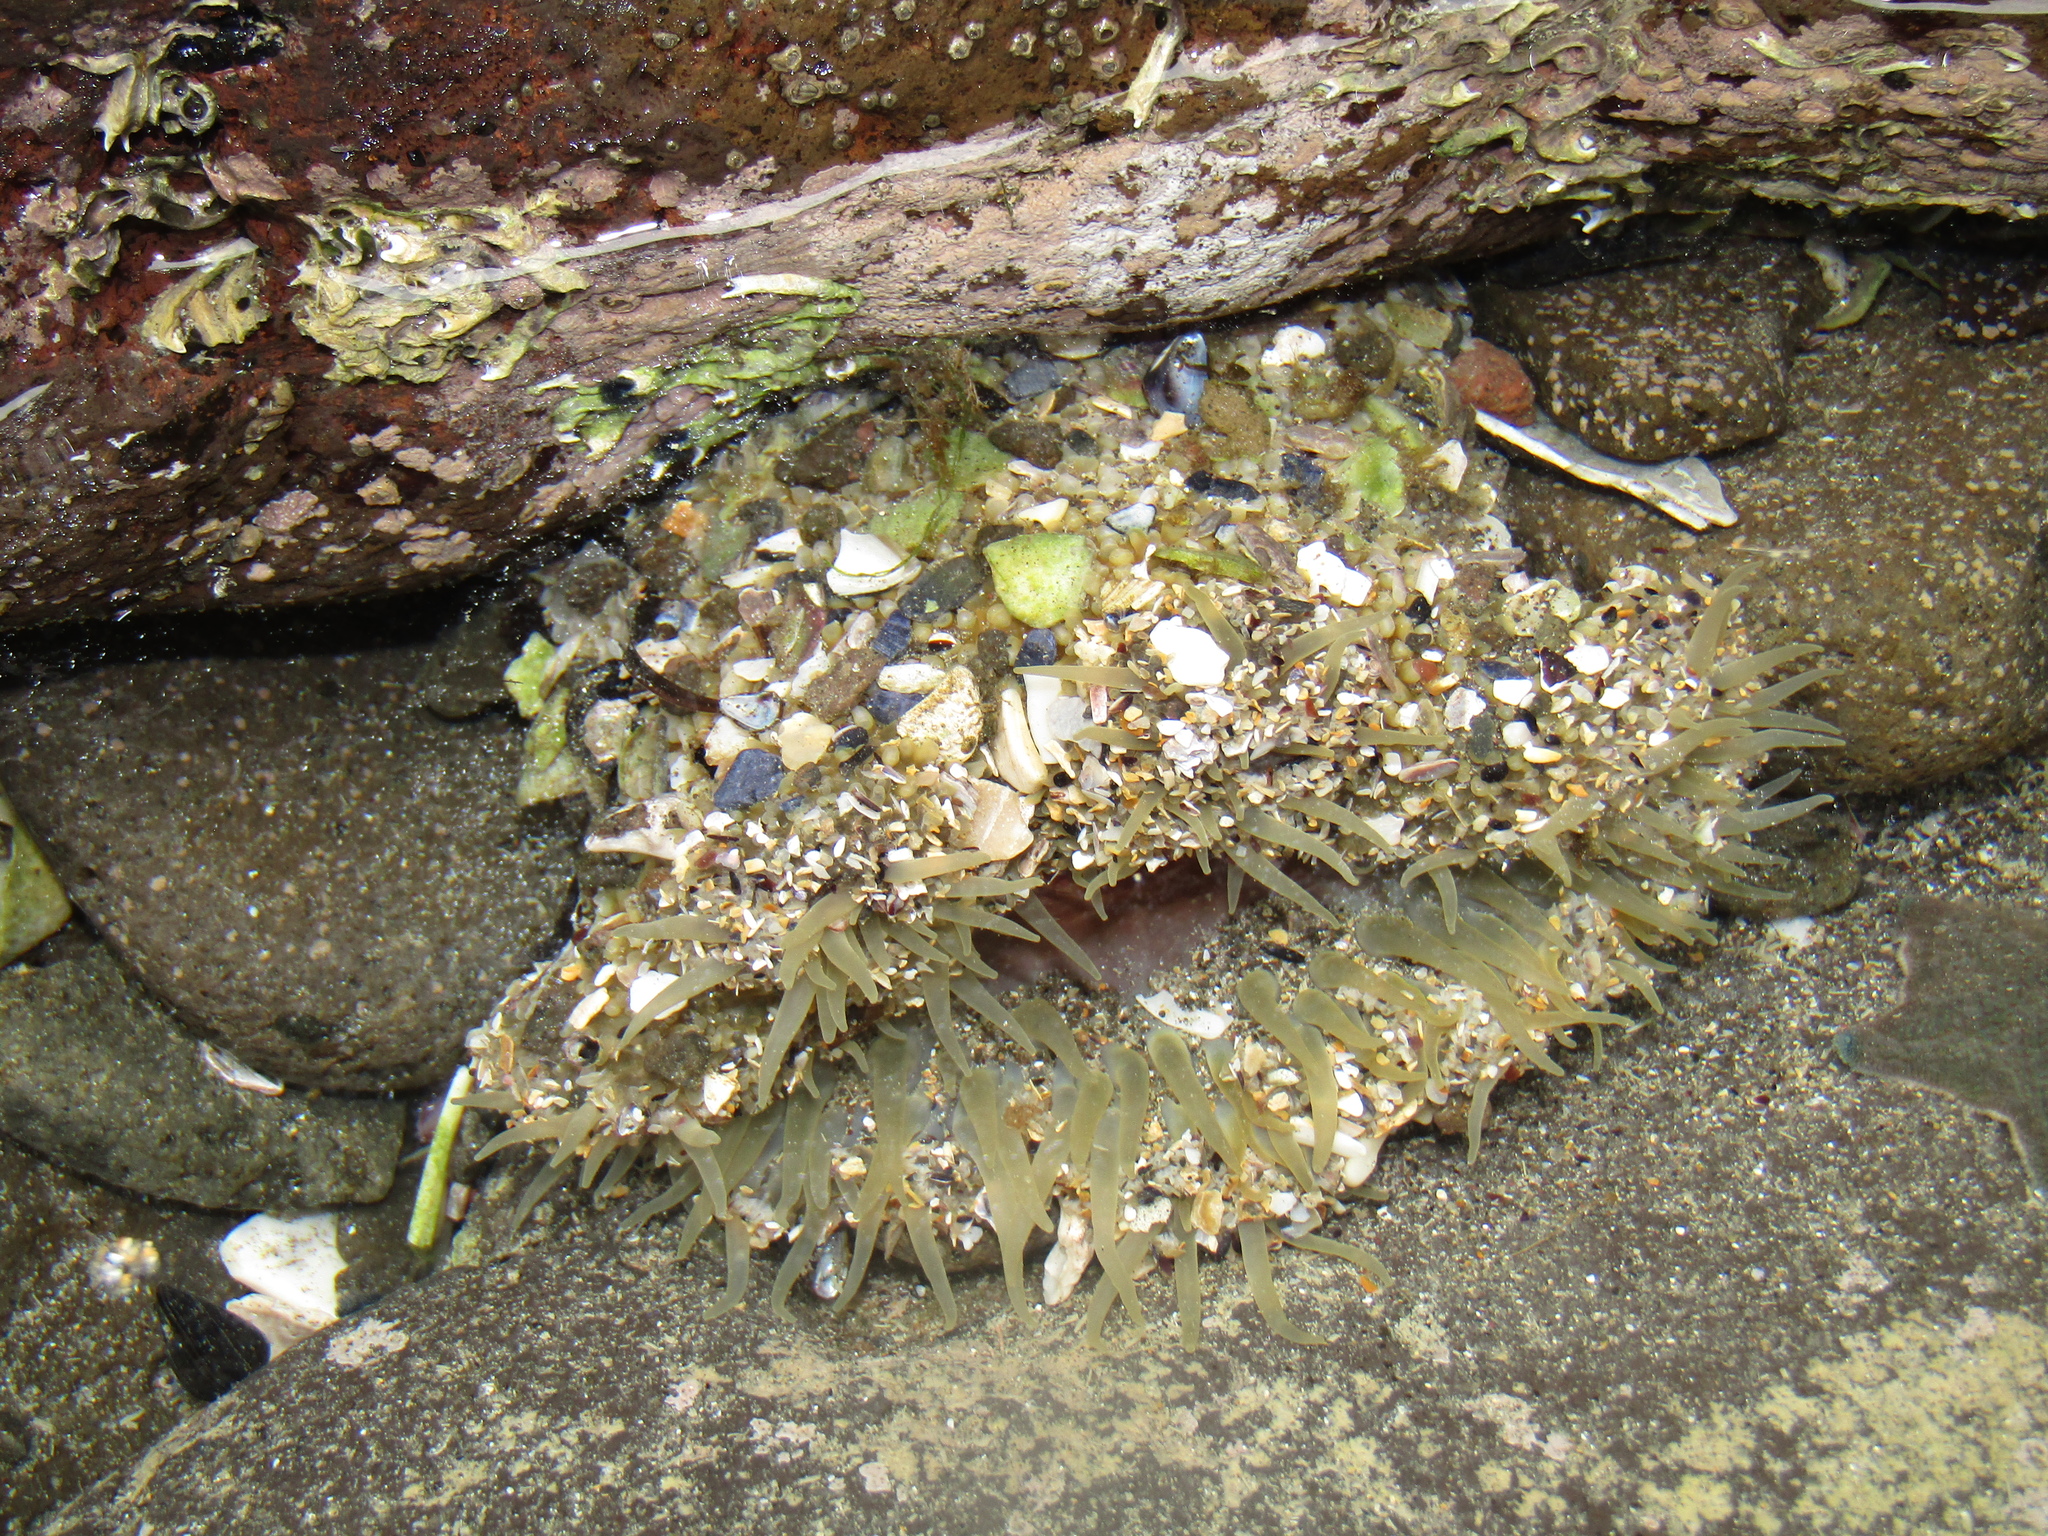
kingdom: Animalia
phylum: Cnidaria
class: Anthozoa
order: Actiniaria
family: Actiniidae
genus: Oulactis
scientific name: Oulactis magna
